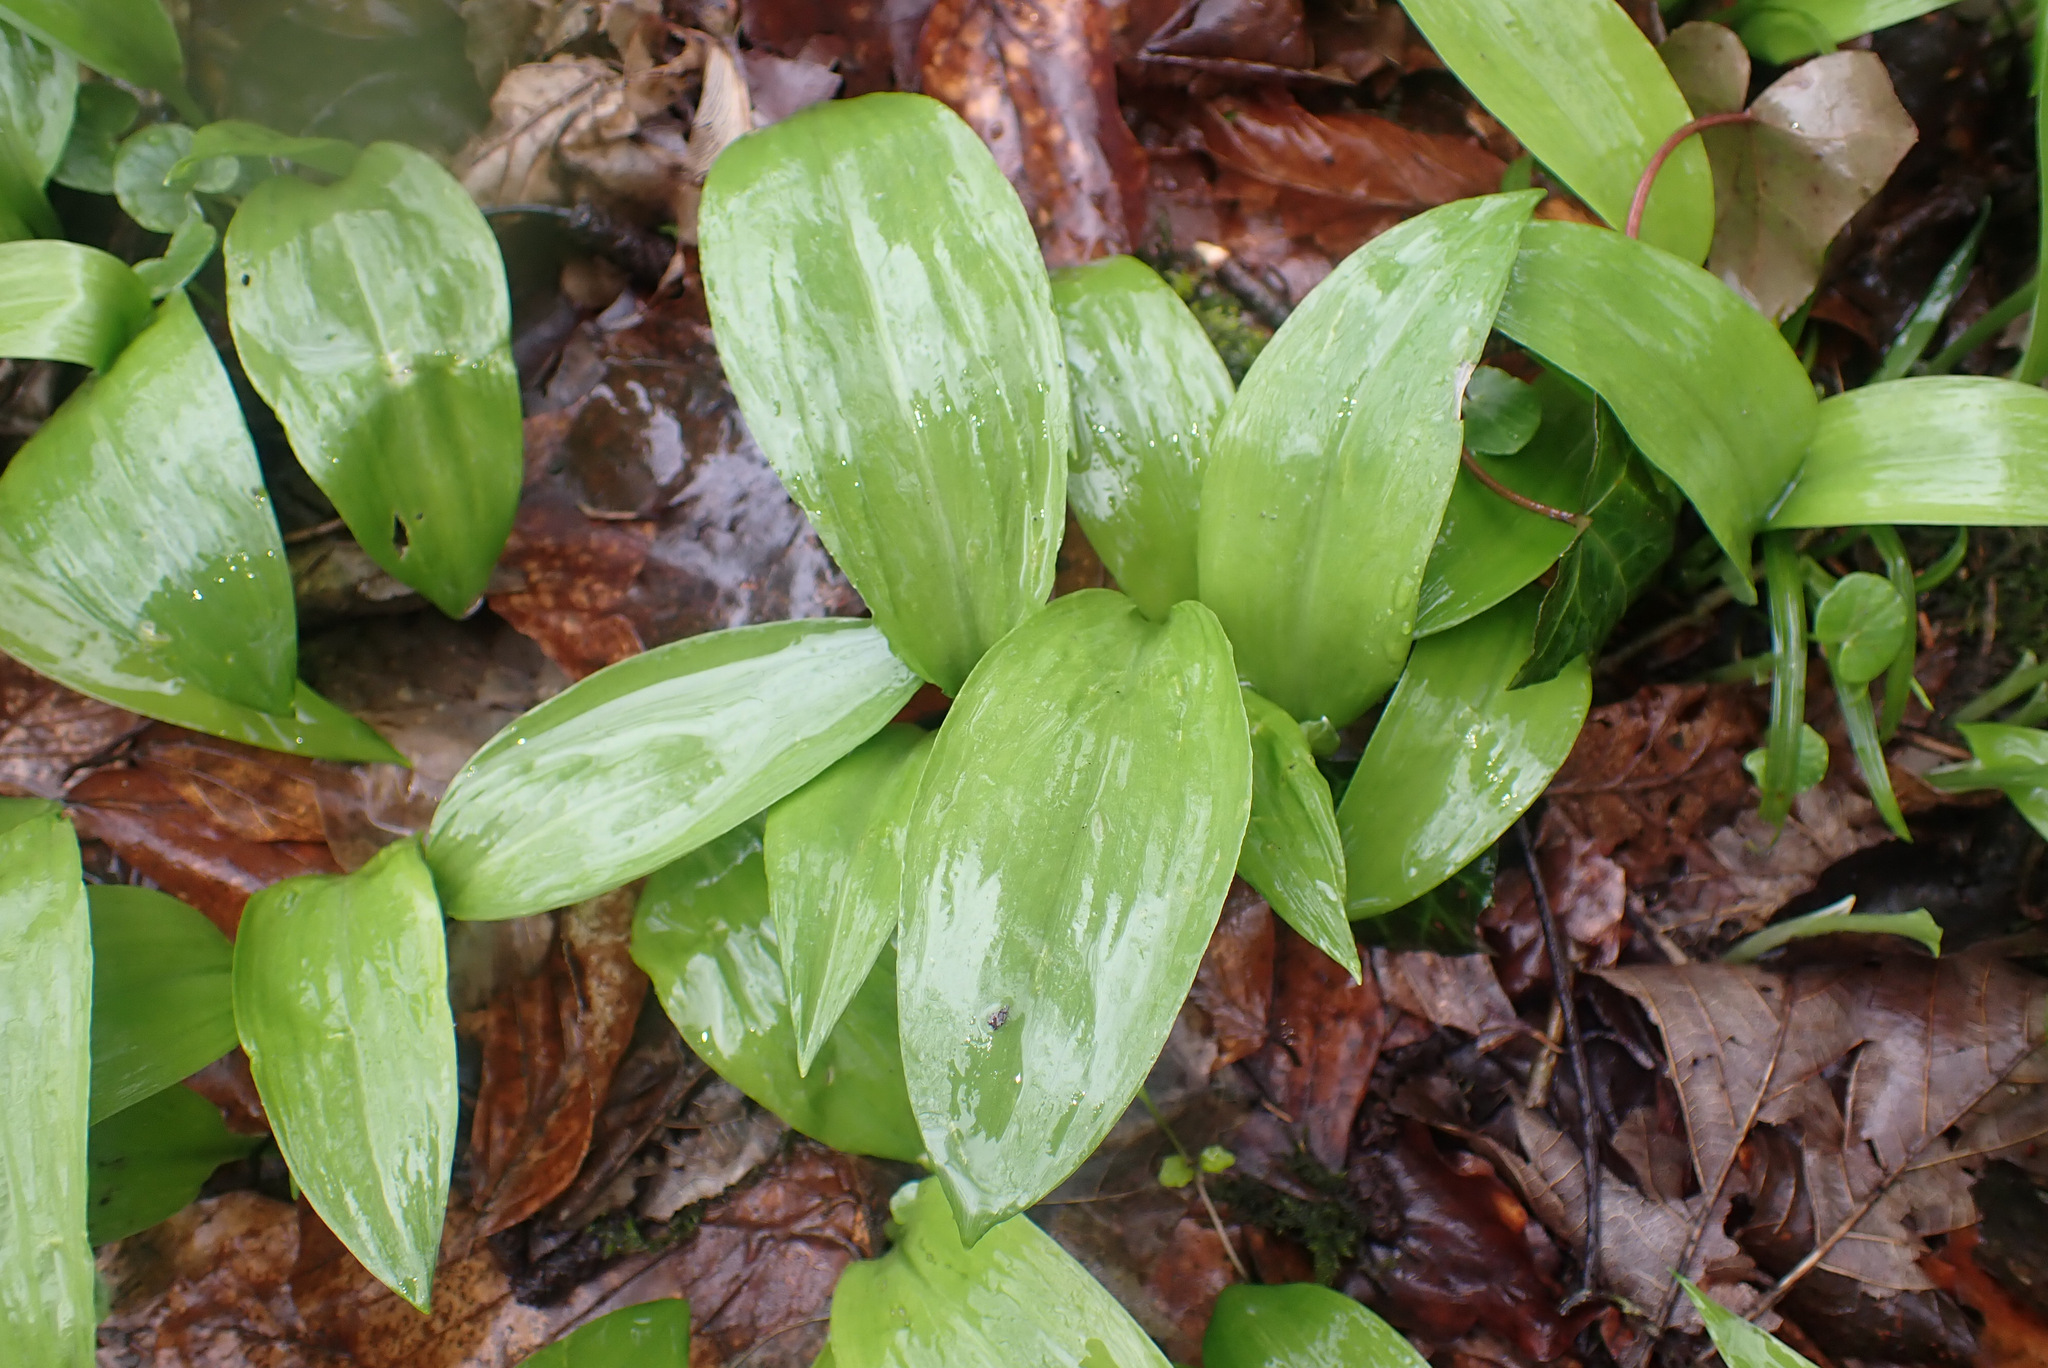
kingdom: Plantae
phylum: Tracheophyta
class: Liliopsida
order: Asparagales
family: Amaryllidaceae
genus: Allium
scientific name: Allium ursinum
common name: Ramsons
